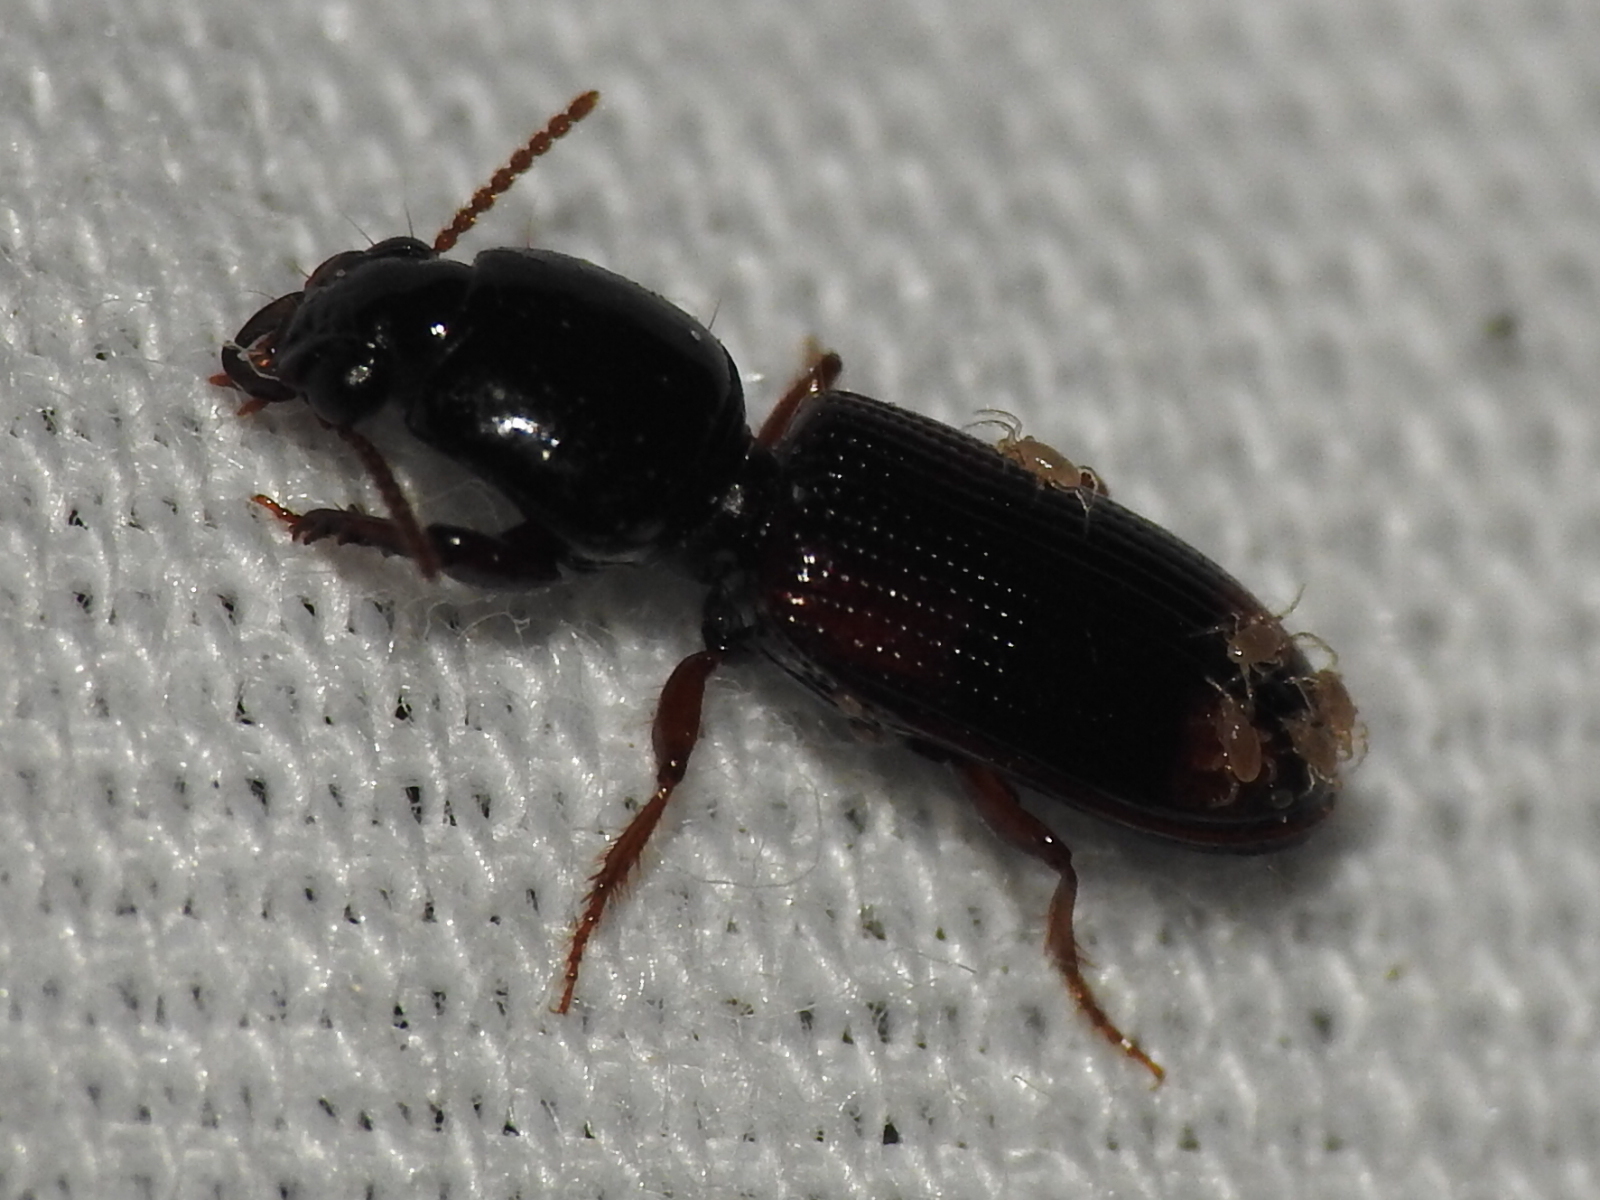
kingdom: Animalia
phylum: Arthropoda
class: Insecta
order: Coleoptera
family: Carabidae
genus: Clivina
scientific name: Clivina bipustulata
